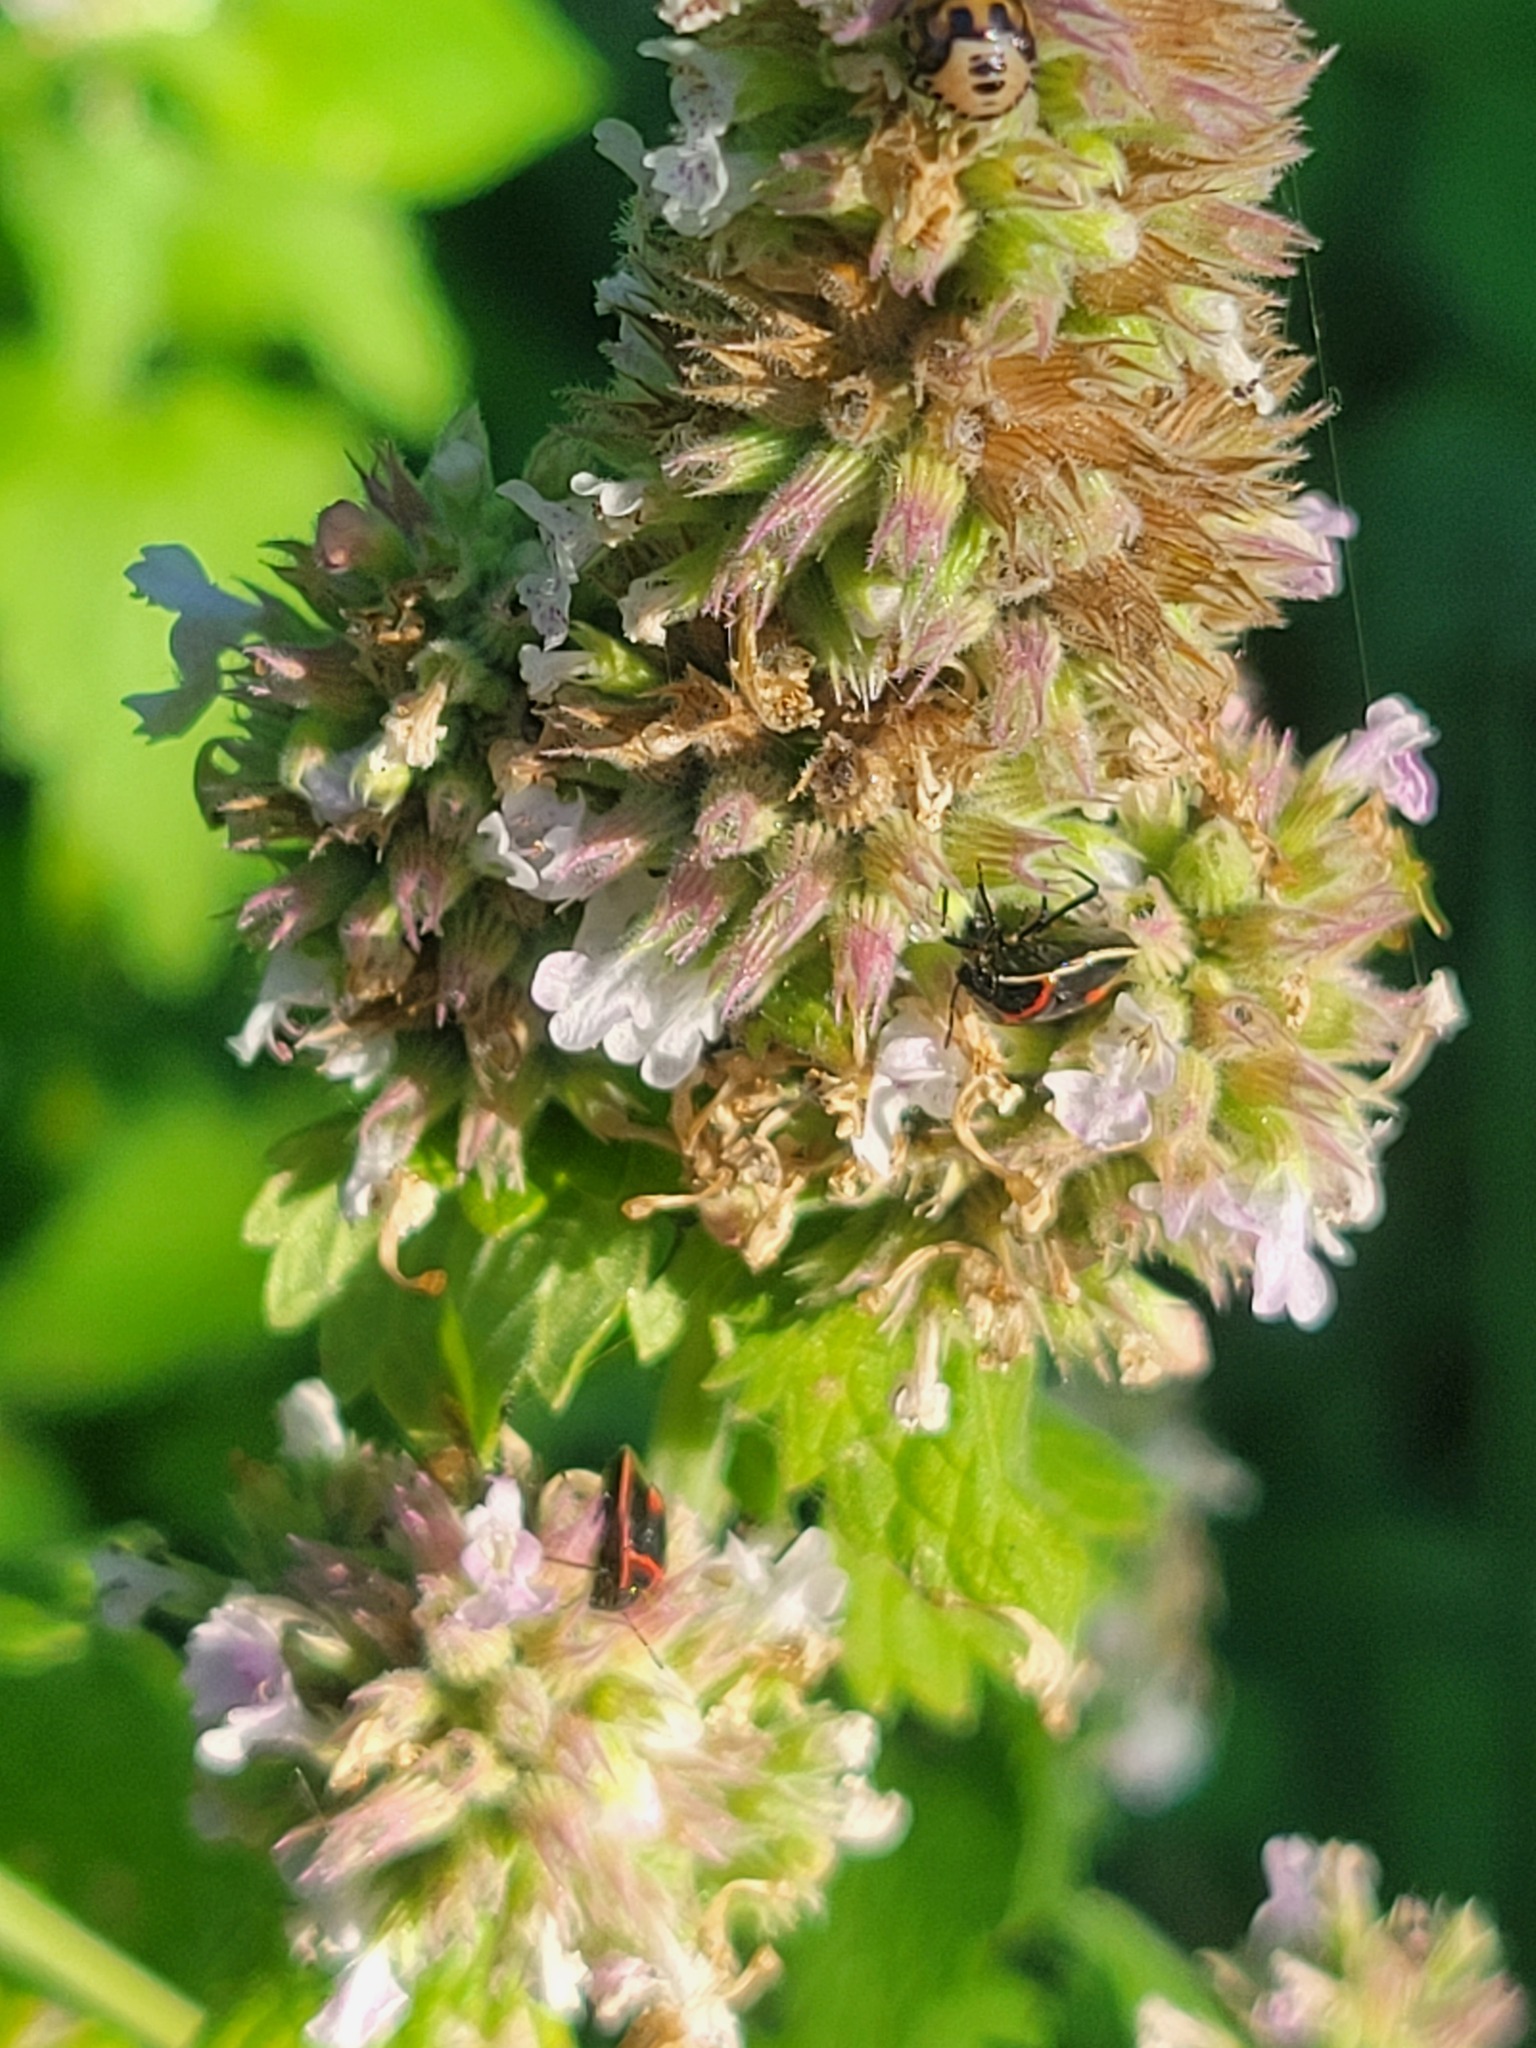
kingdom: Animalia
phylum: Arthropoda
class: Insecta
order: Hemiptera
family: Pentatomidae
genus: Cosmopepla
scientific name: Cosmopepla lintneriana
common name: Twice-stabbed stink bug
